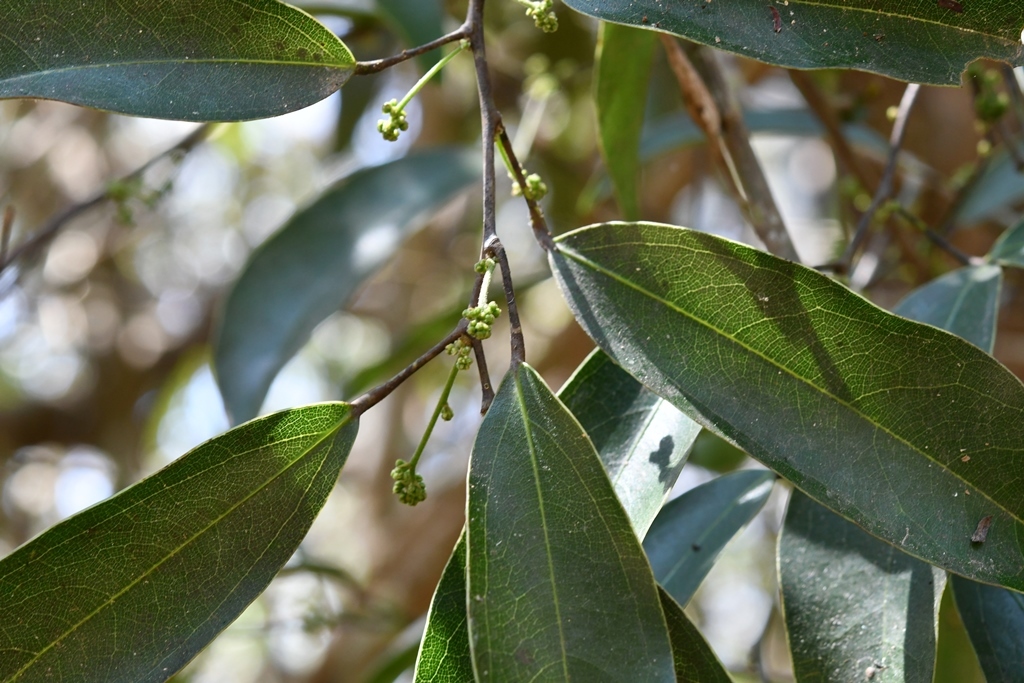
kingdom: Plantae
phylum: Tracheophyta
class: Magnoliopsida
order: Ranunculales
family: Menispermaceae
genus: Hyperbaena
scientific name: Hyperbaena mexicana
